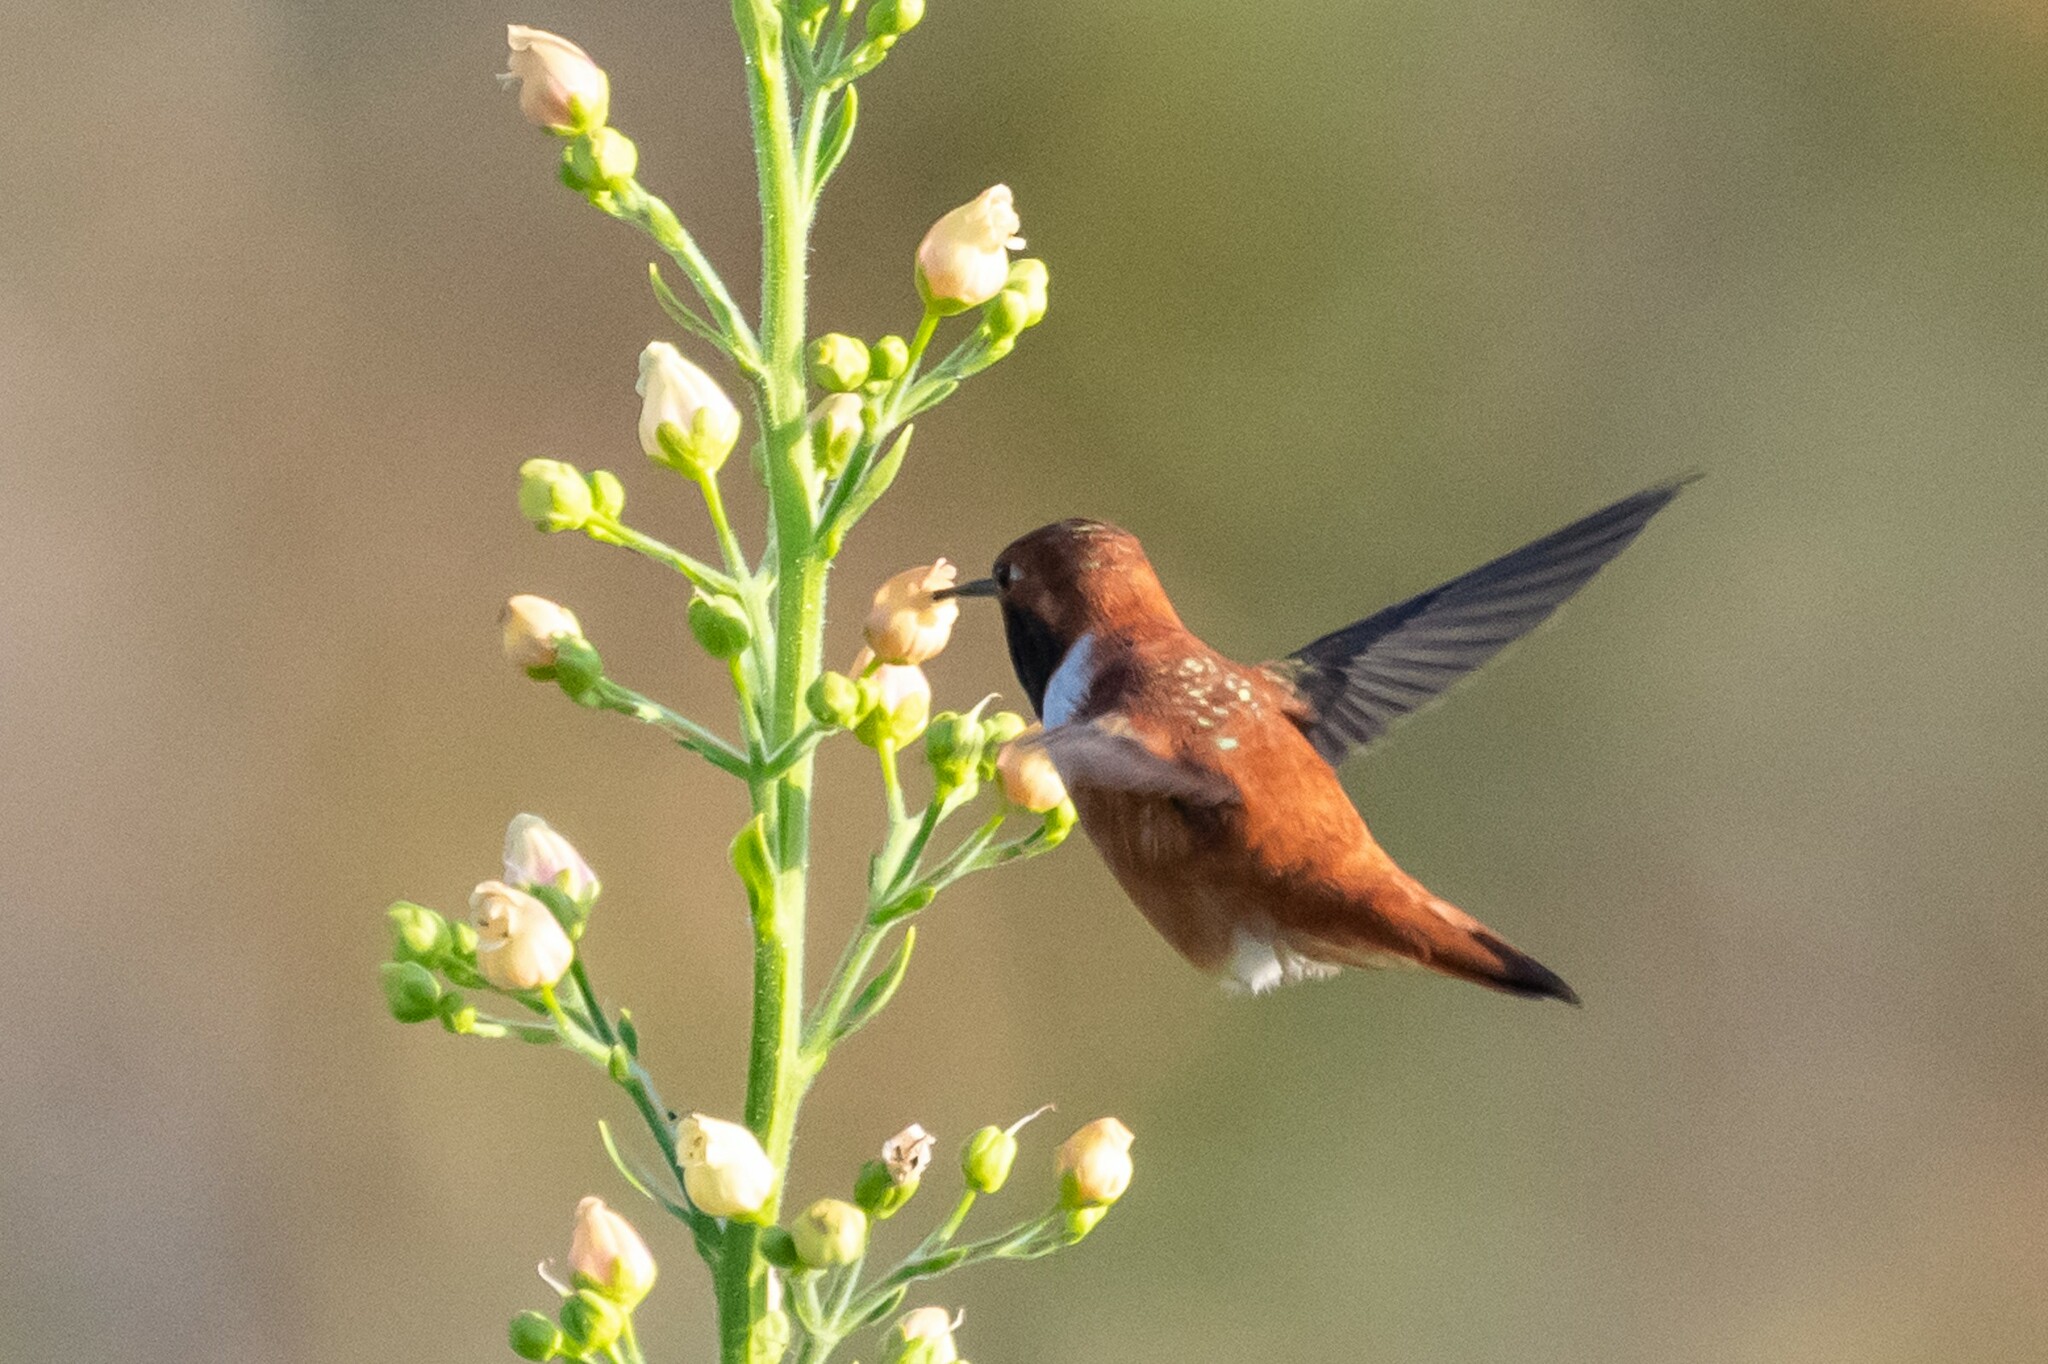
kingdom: Animalia
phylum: Chordata
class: Aves
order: Apodiformes
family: Trochilidae
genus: Selasphorus
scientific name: Selasphorus rufus
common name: Rufous hummingbird
